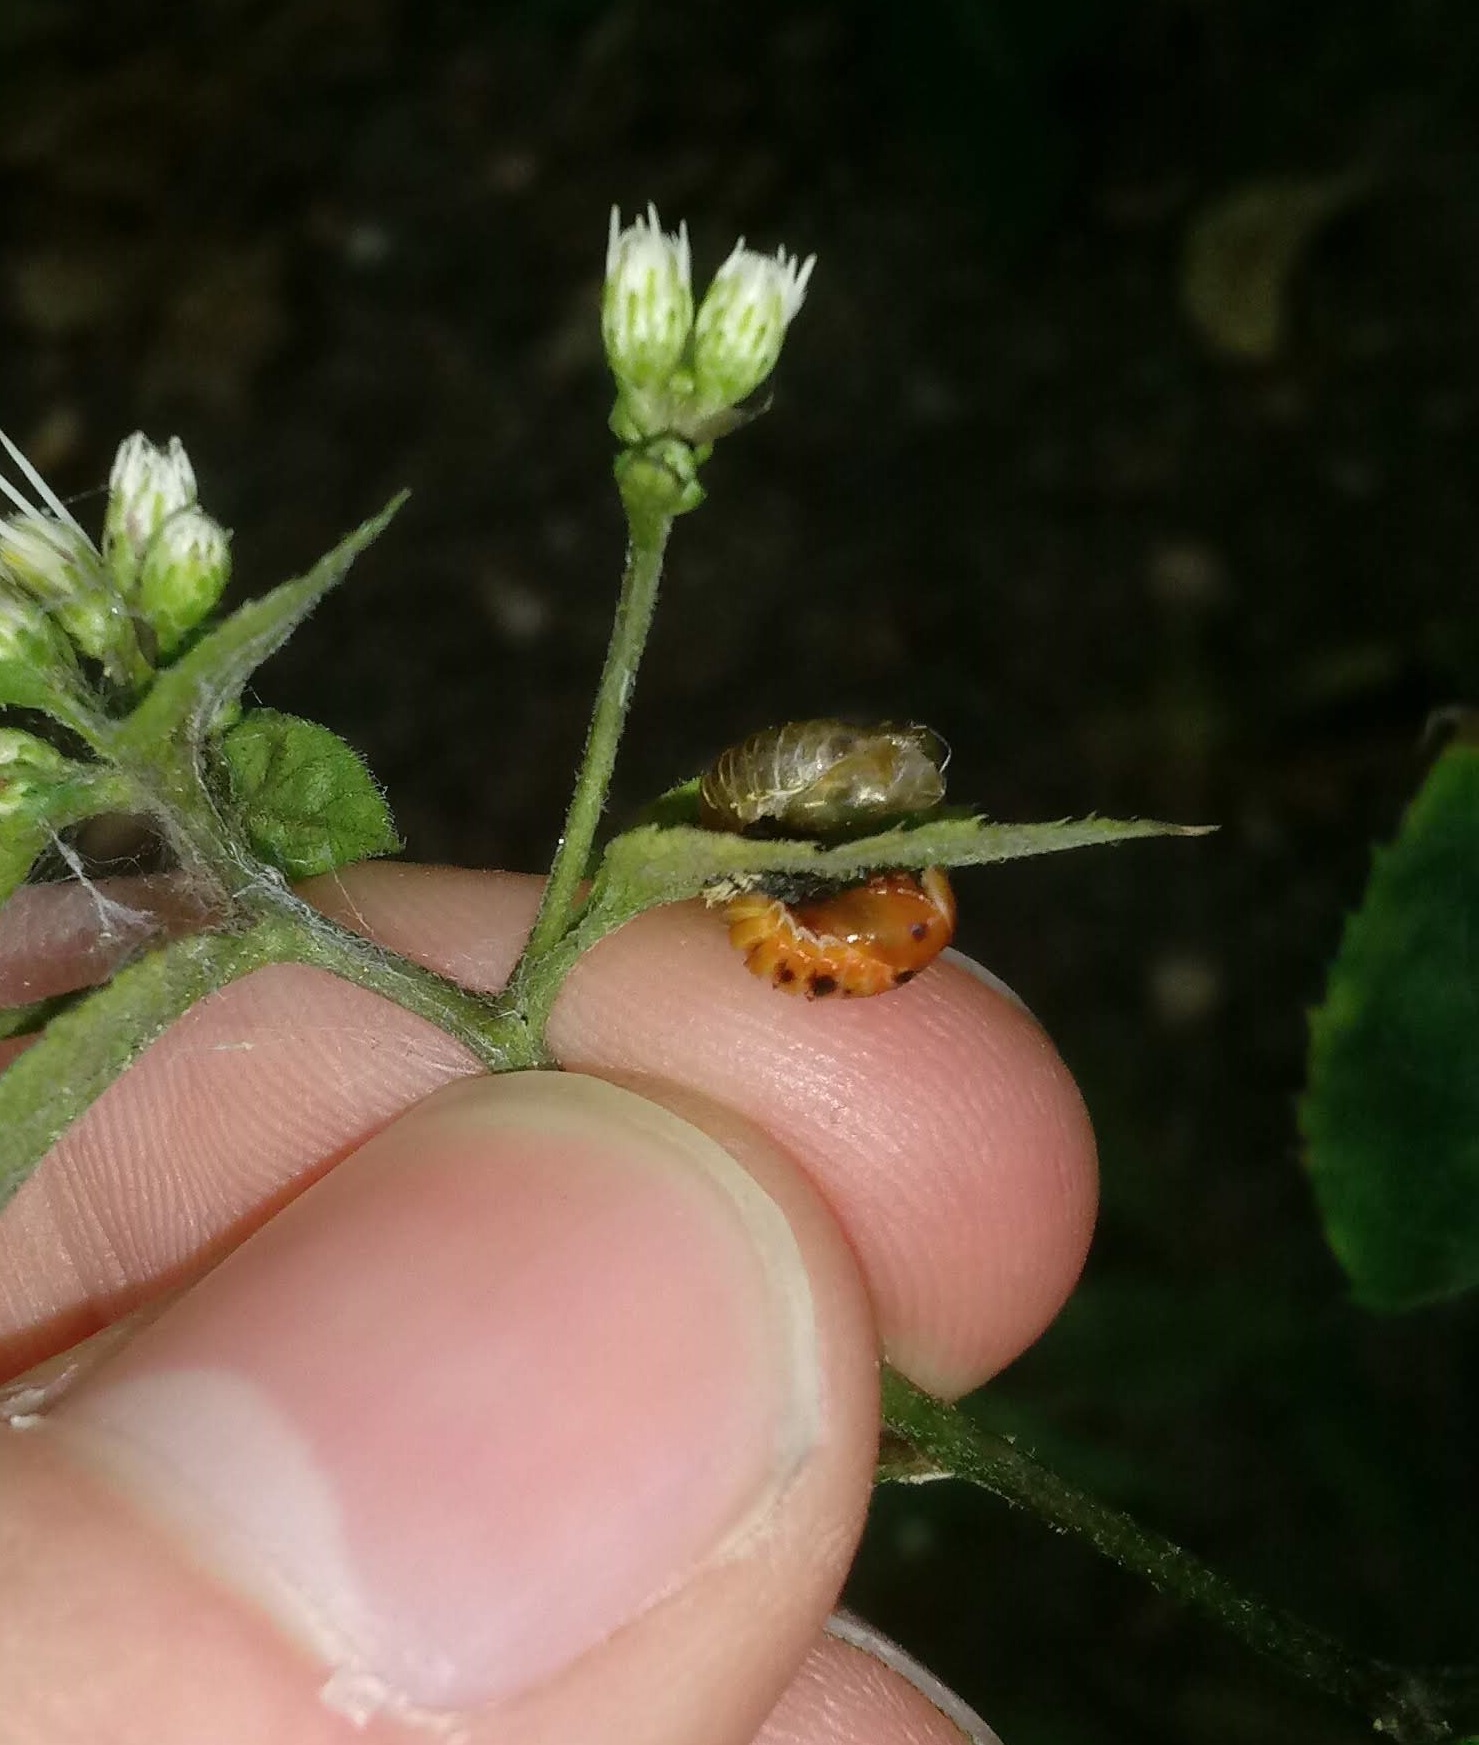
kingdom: Animalia
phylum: Arthropoda
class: Insecta
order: Coleoptera
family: Coccinellidae
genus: Harmonia
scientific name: Harmonia axyridis
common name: Harlequin ladybird
